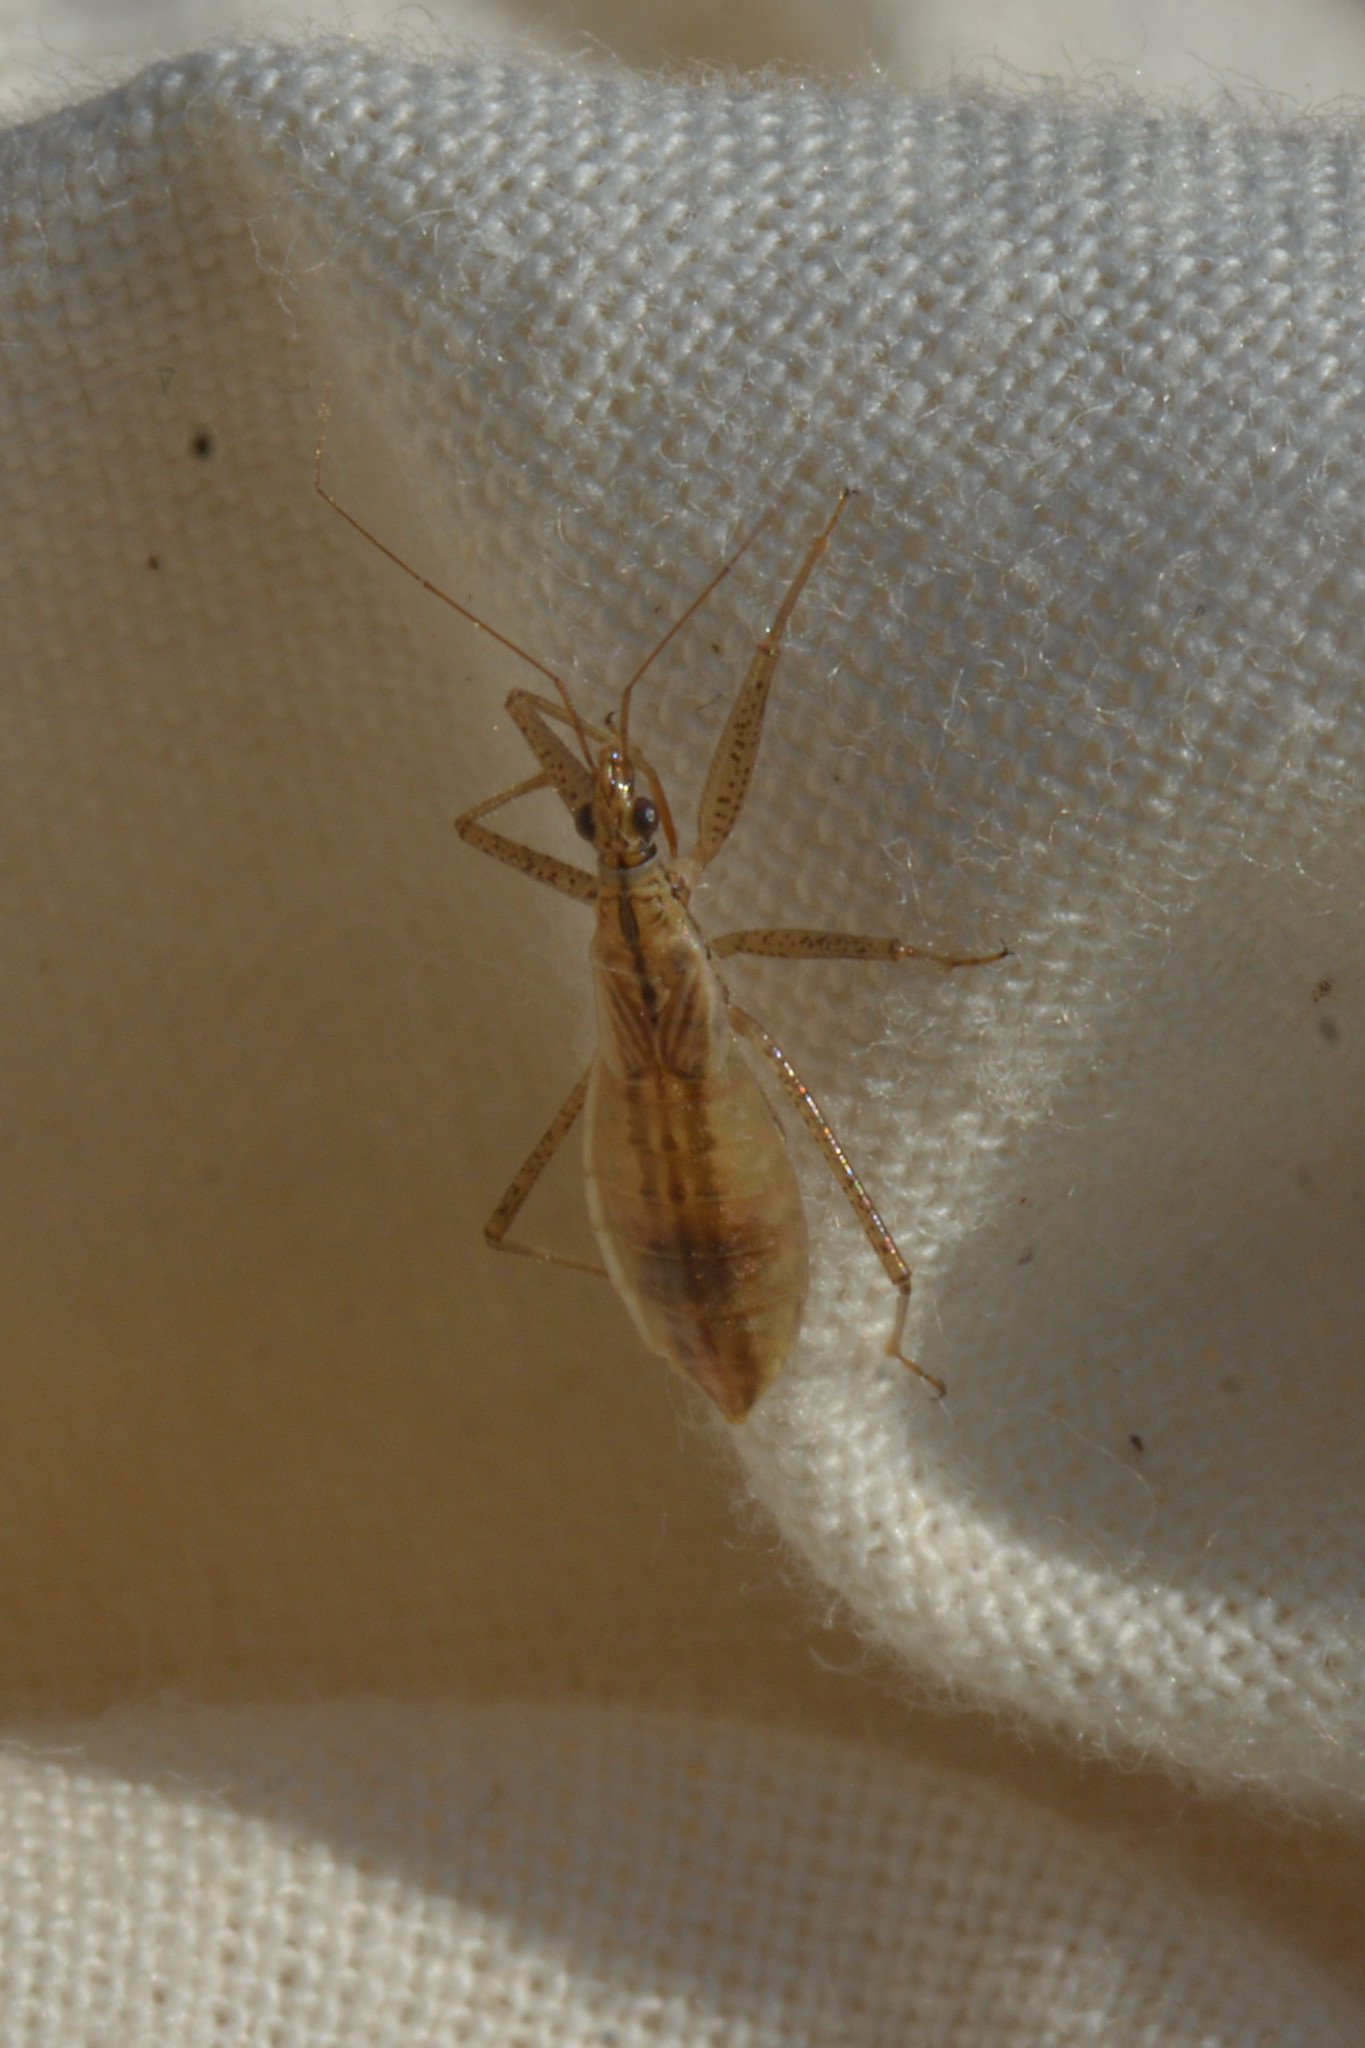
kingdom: Animalia
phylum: Arthropoda
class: Insecta
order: Hemiptera
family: Nabidae
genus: Nabis
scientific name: Nabis limbatus
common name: Marsh damselbug
